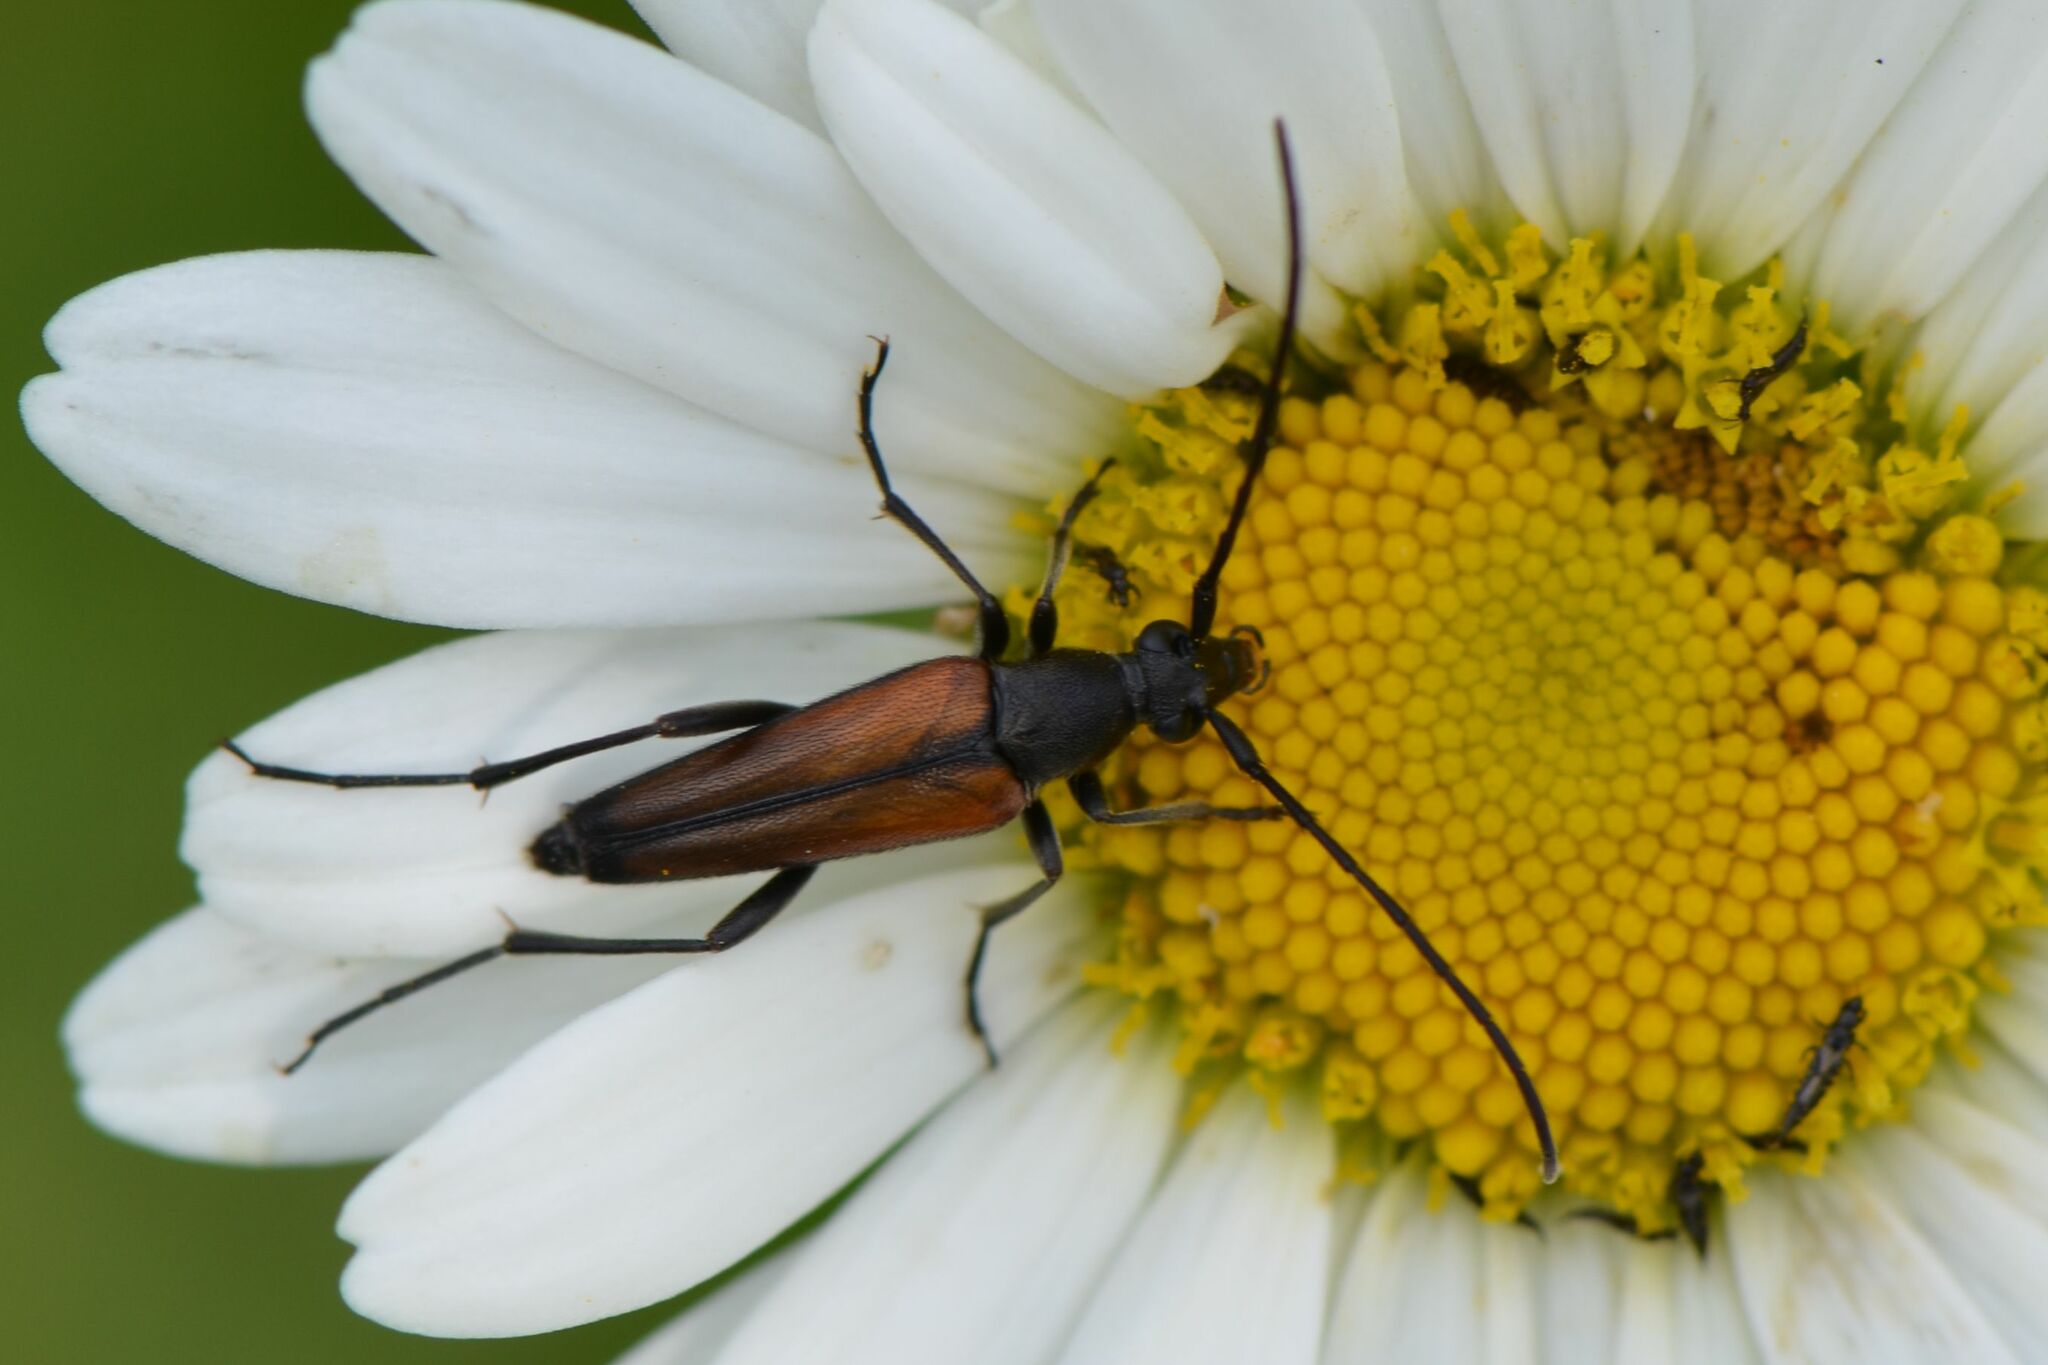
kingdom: Animalia
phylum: Arthropoda
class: Insecta
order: Coleoptera
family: Cerambycidae
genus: Stenurella
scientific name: Stenurella melanura
